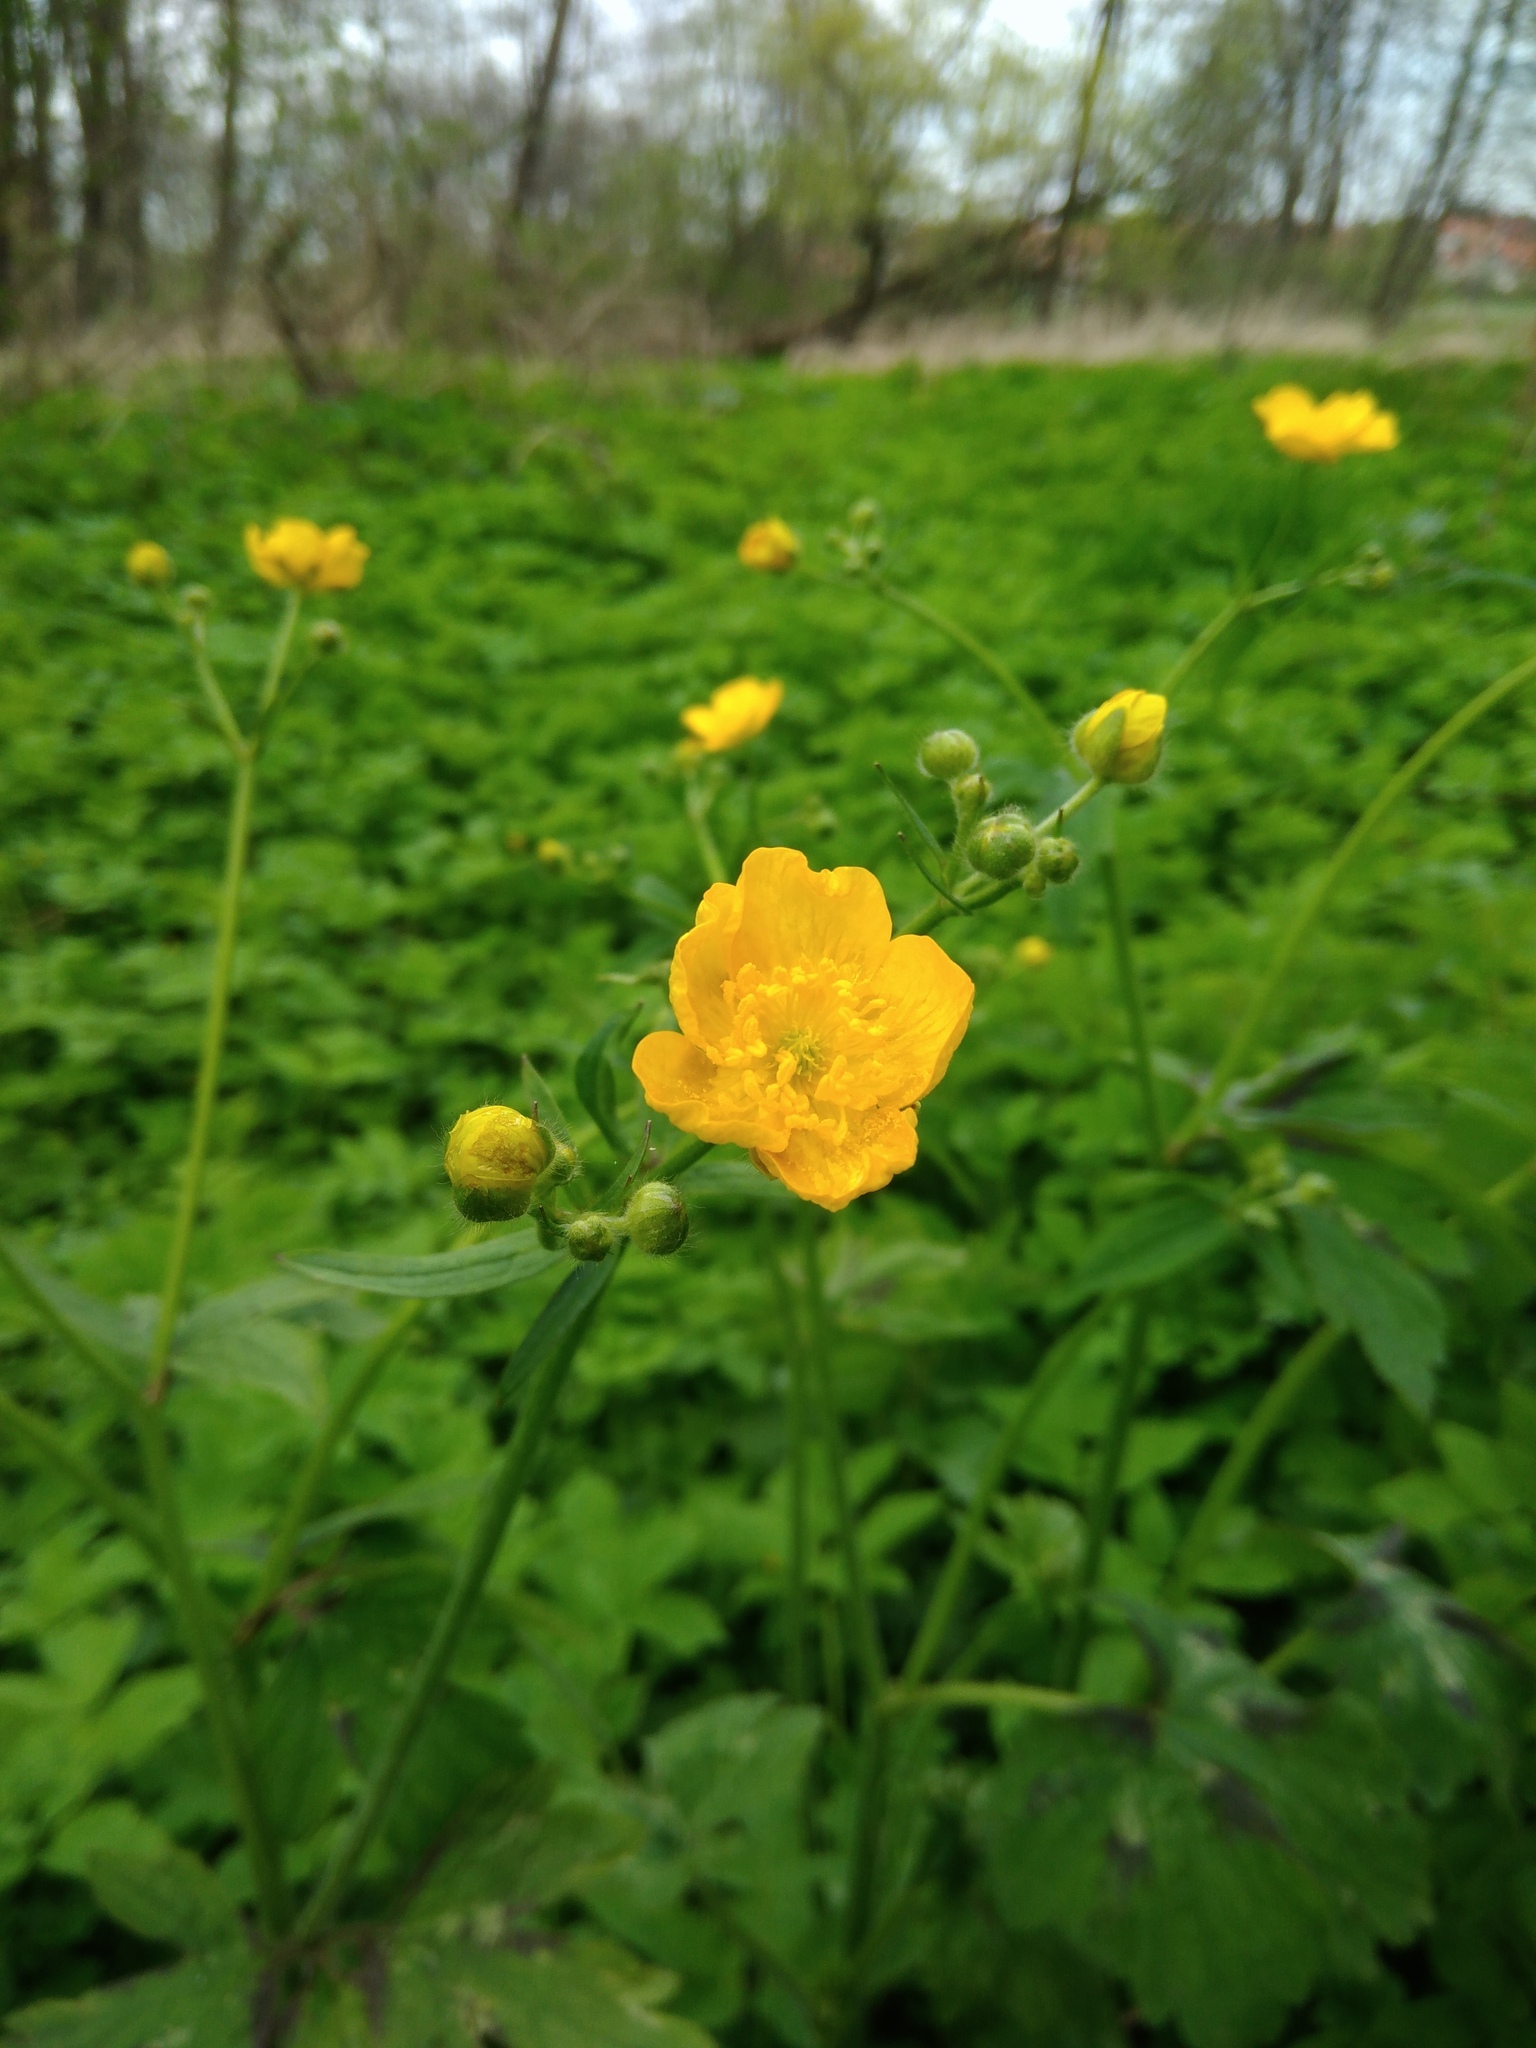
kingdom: Plantae
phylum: Tracheophyta
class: Magnoliopsida
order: Ranunculales
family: Ranunculaceae
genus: Ranunculus
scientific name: Ranunculus lanuginosus
